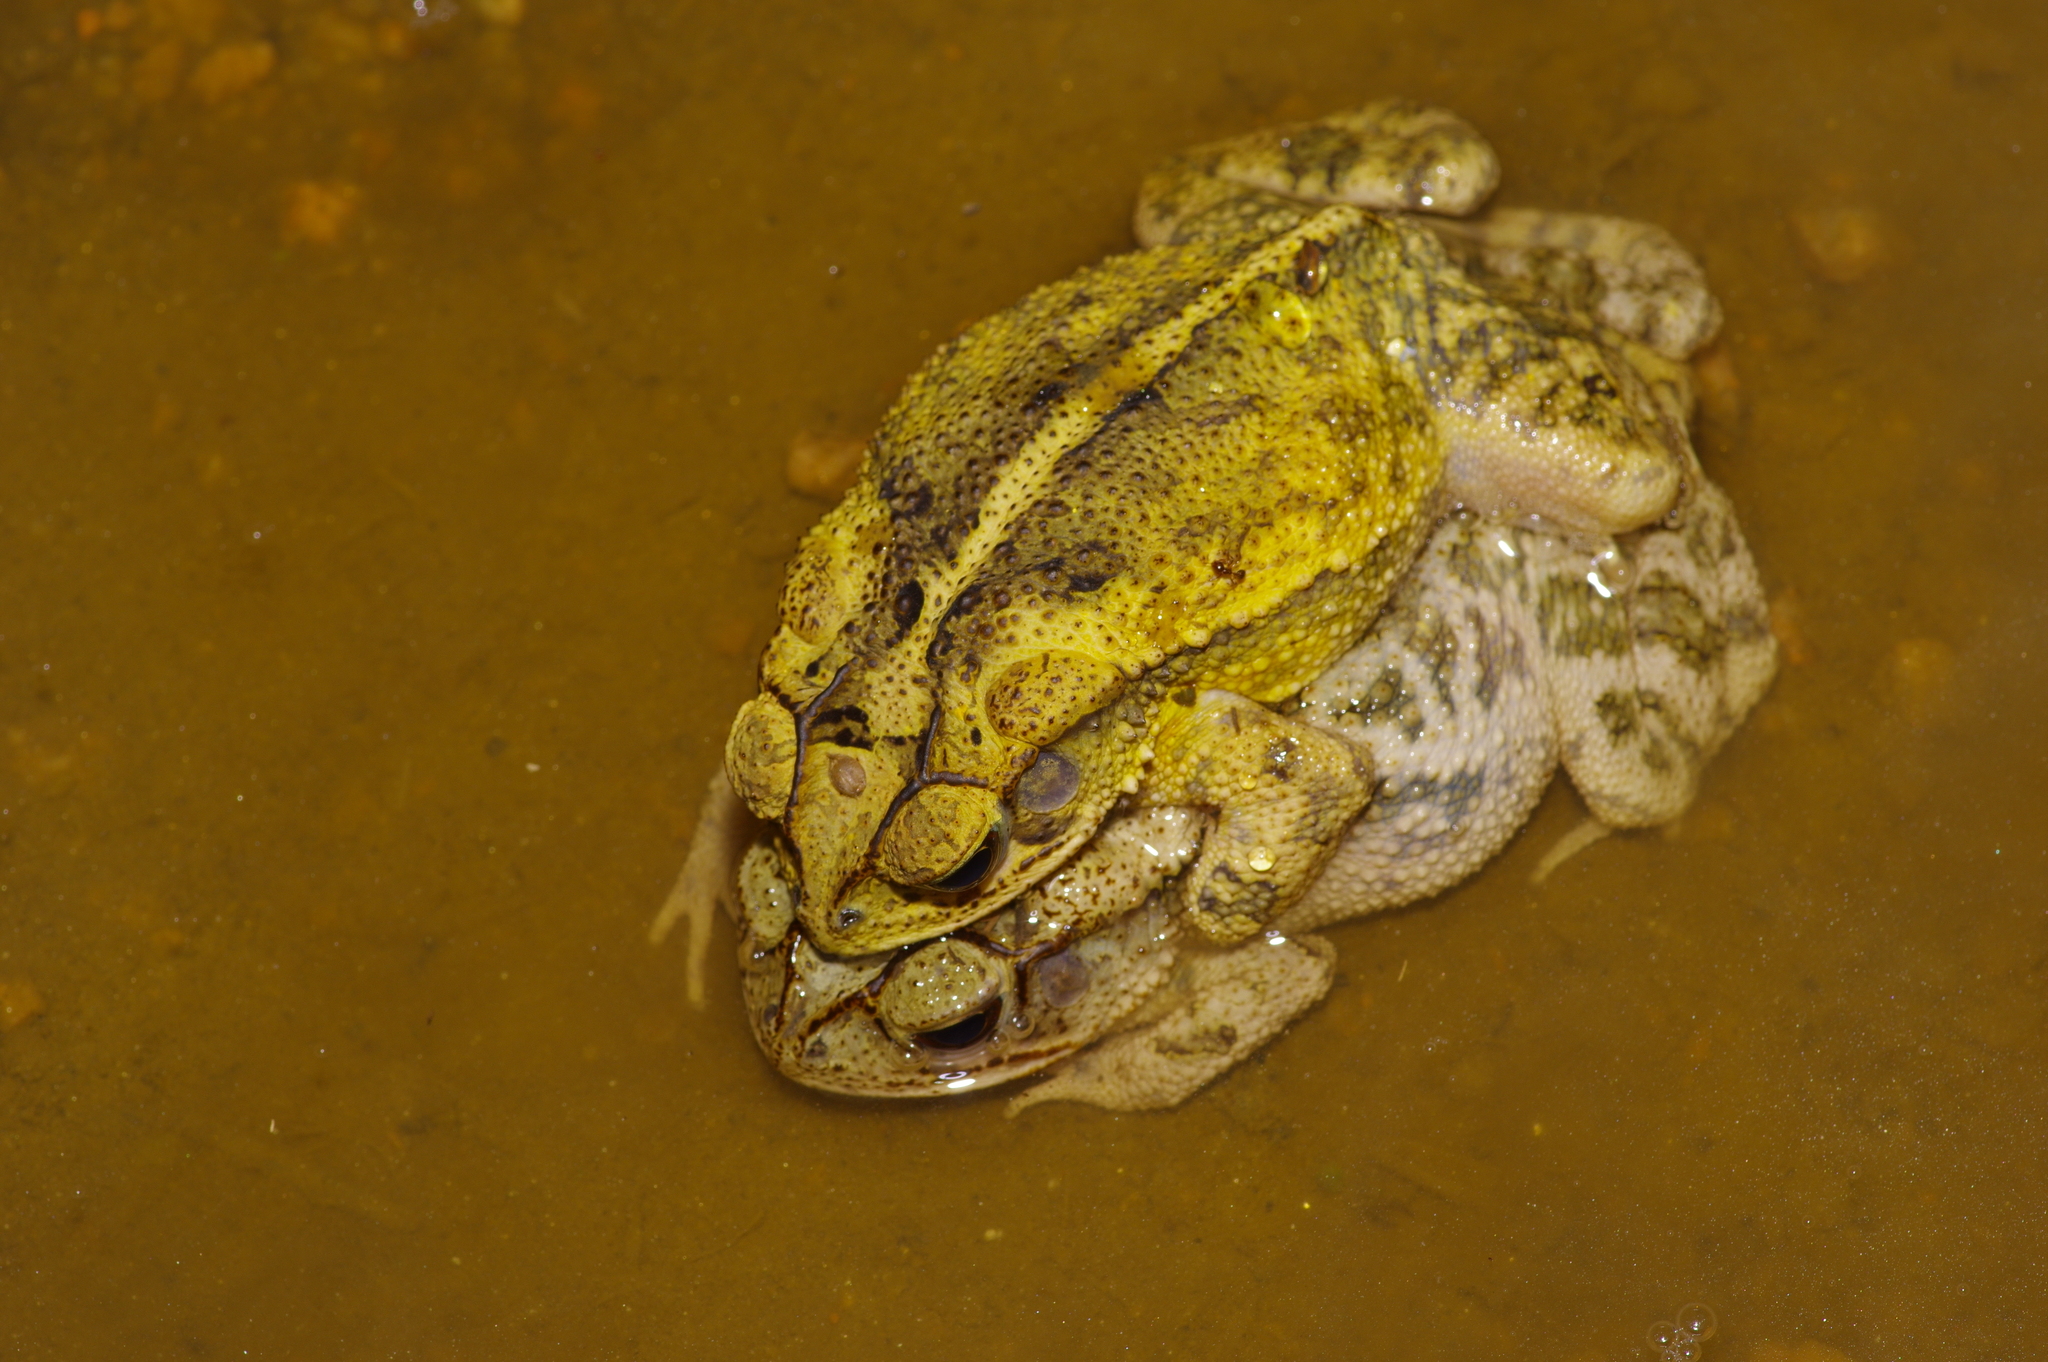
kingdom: Animalia
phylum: Chordata
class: Amphibia
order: Anura
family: Bufonidae
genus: Incilius
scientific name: Incilius nebulifer
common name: Gulf coast toad
